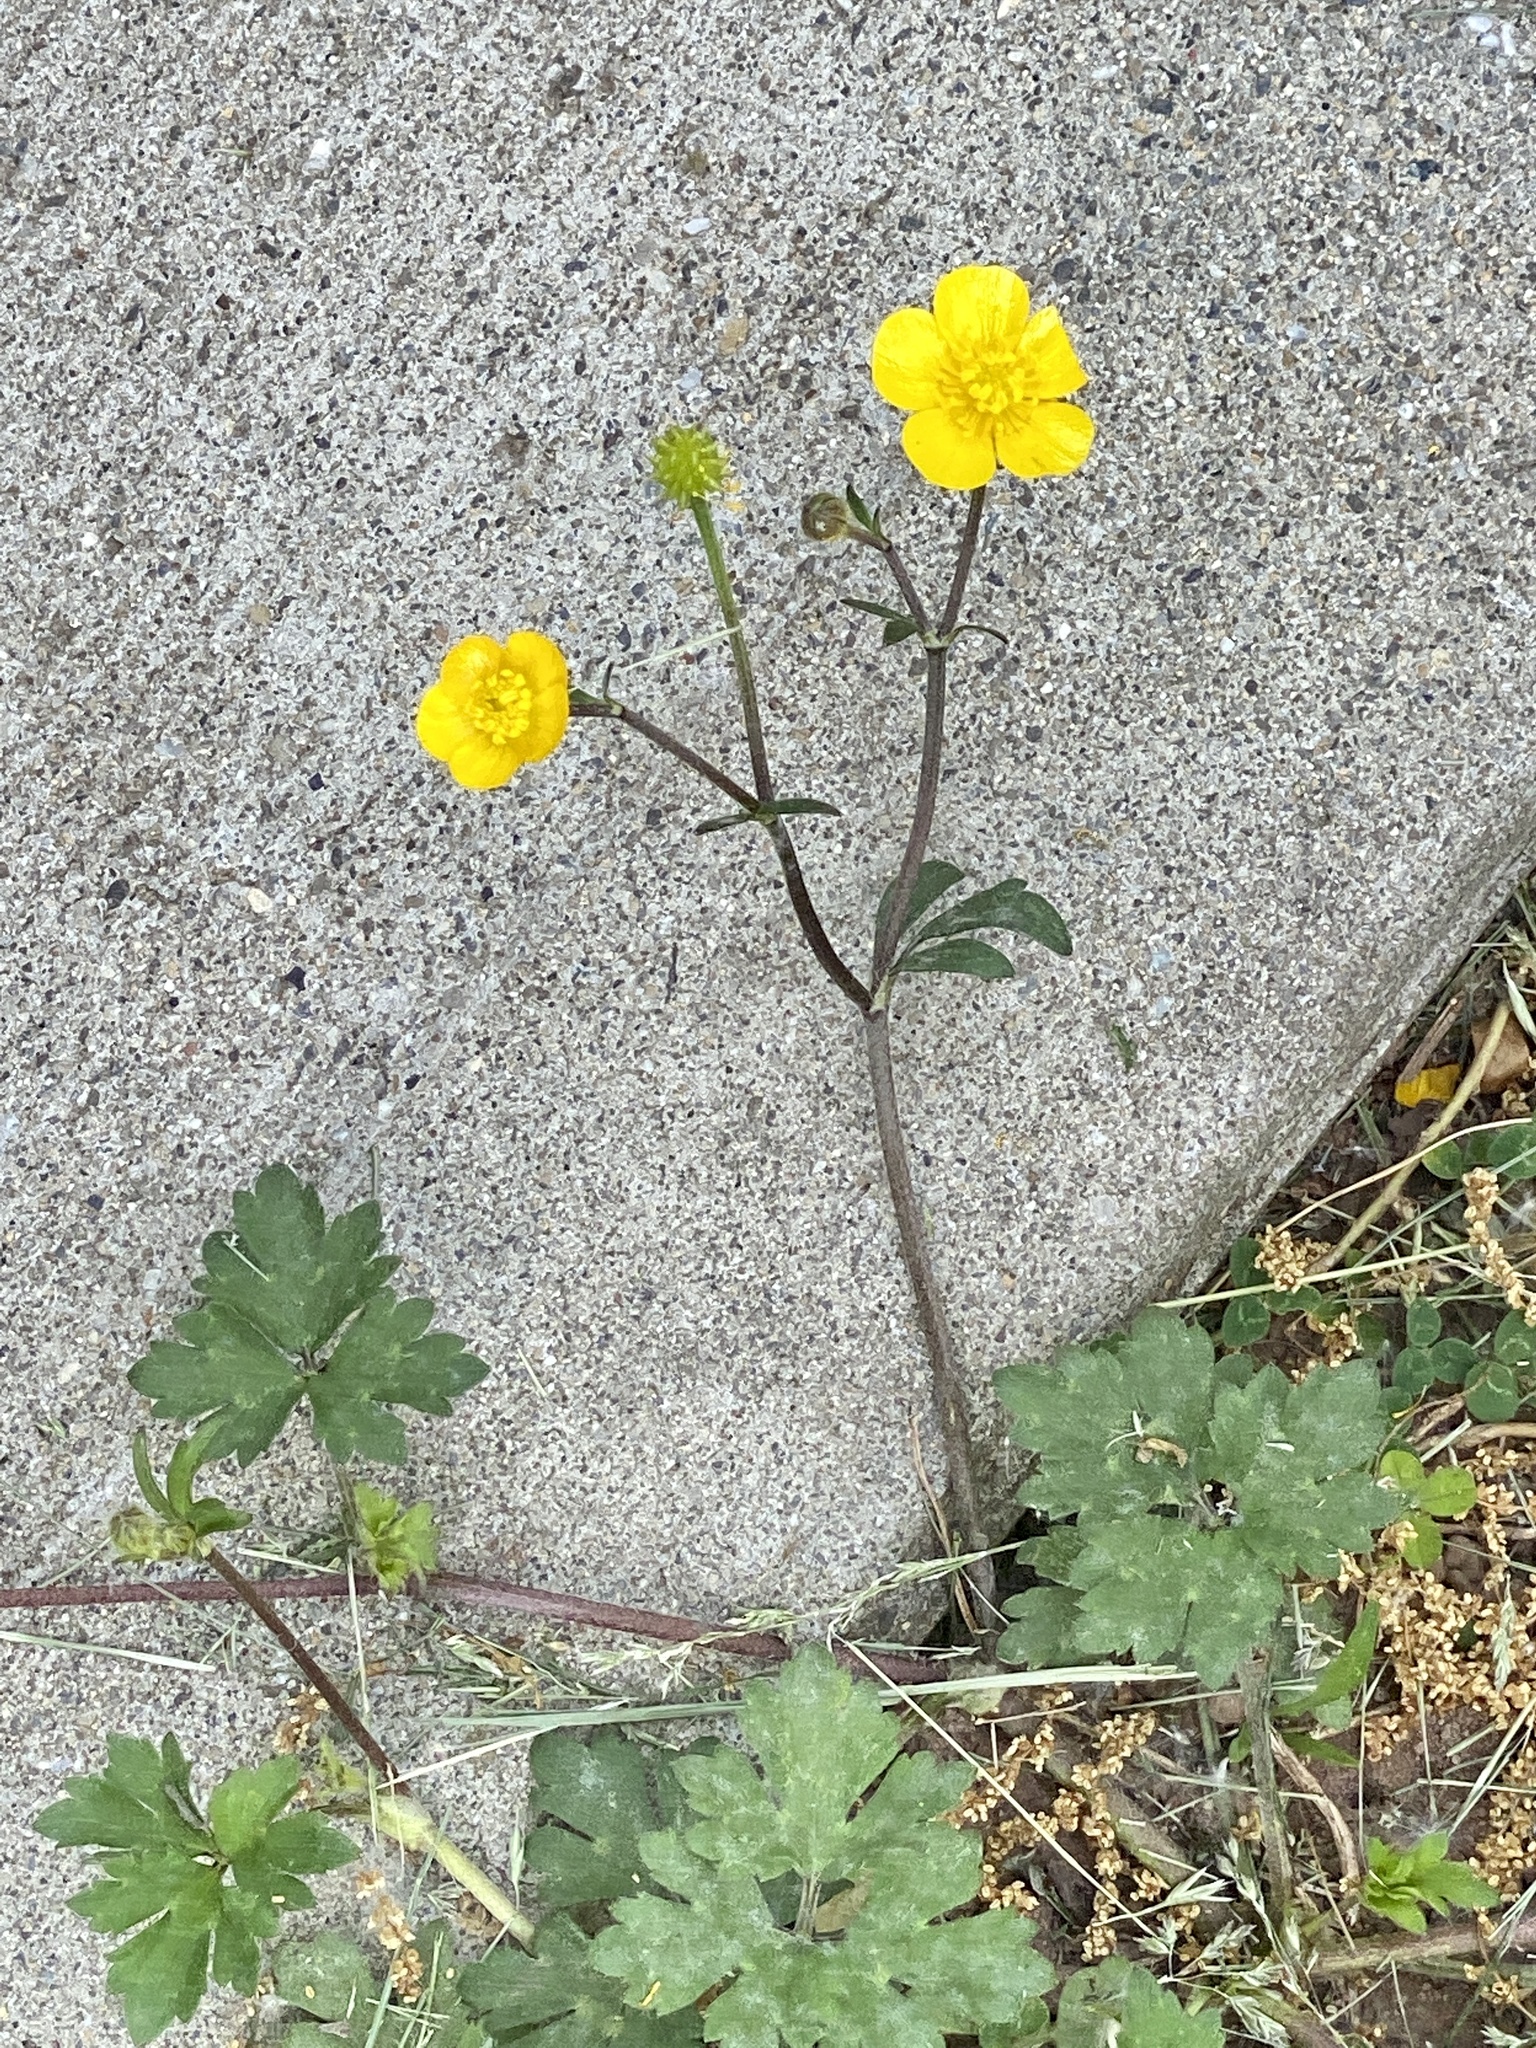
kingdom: Plantae
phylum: Tracheophyta
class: Magnoliopsida
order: Ranunculales
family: Ranunculaceae
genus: Ranunculus
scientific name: Ranunculus repens
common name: Creeping buttercup
